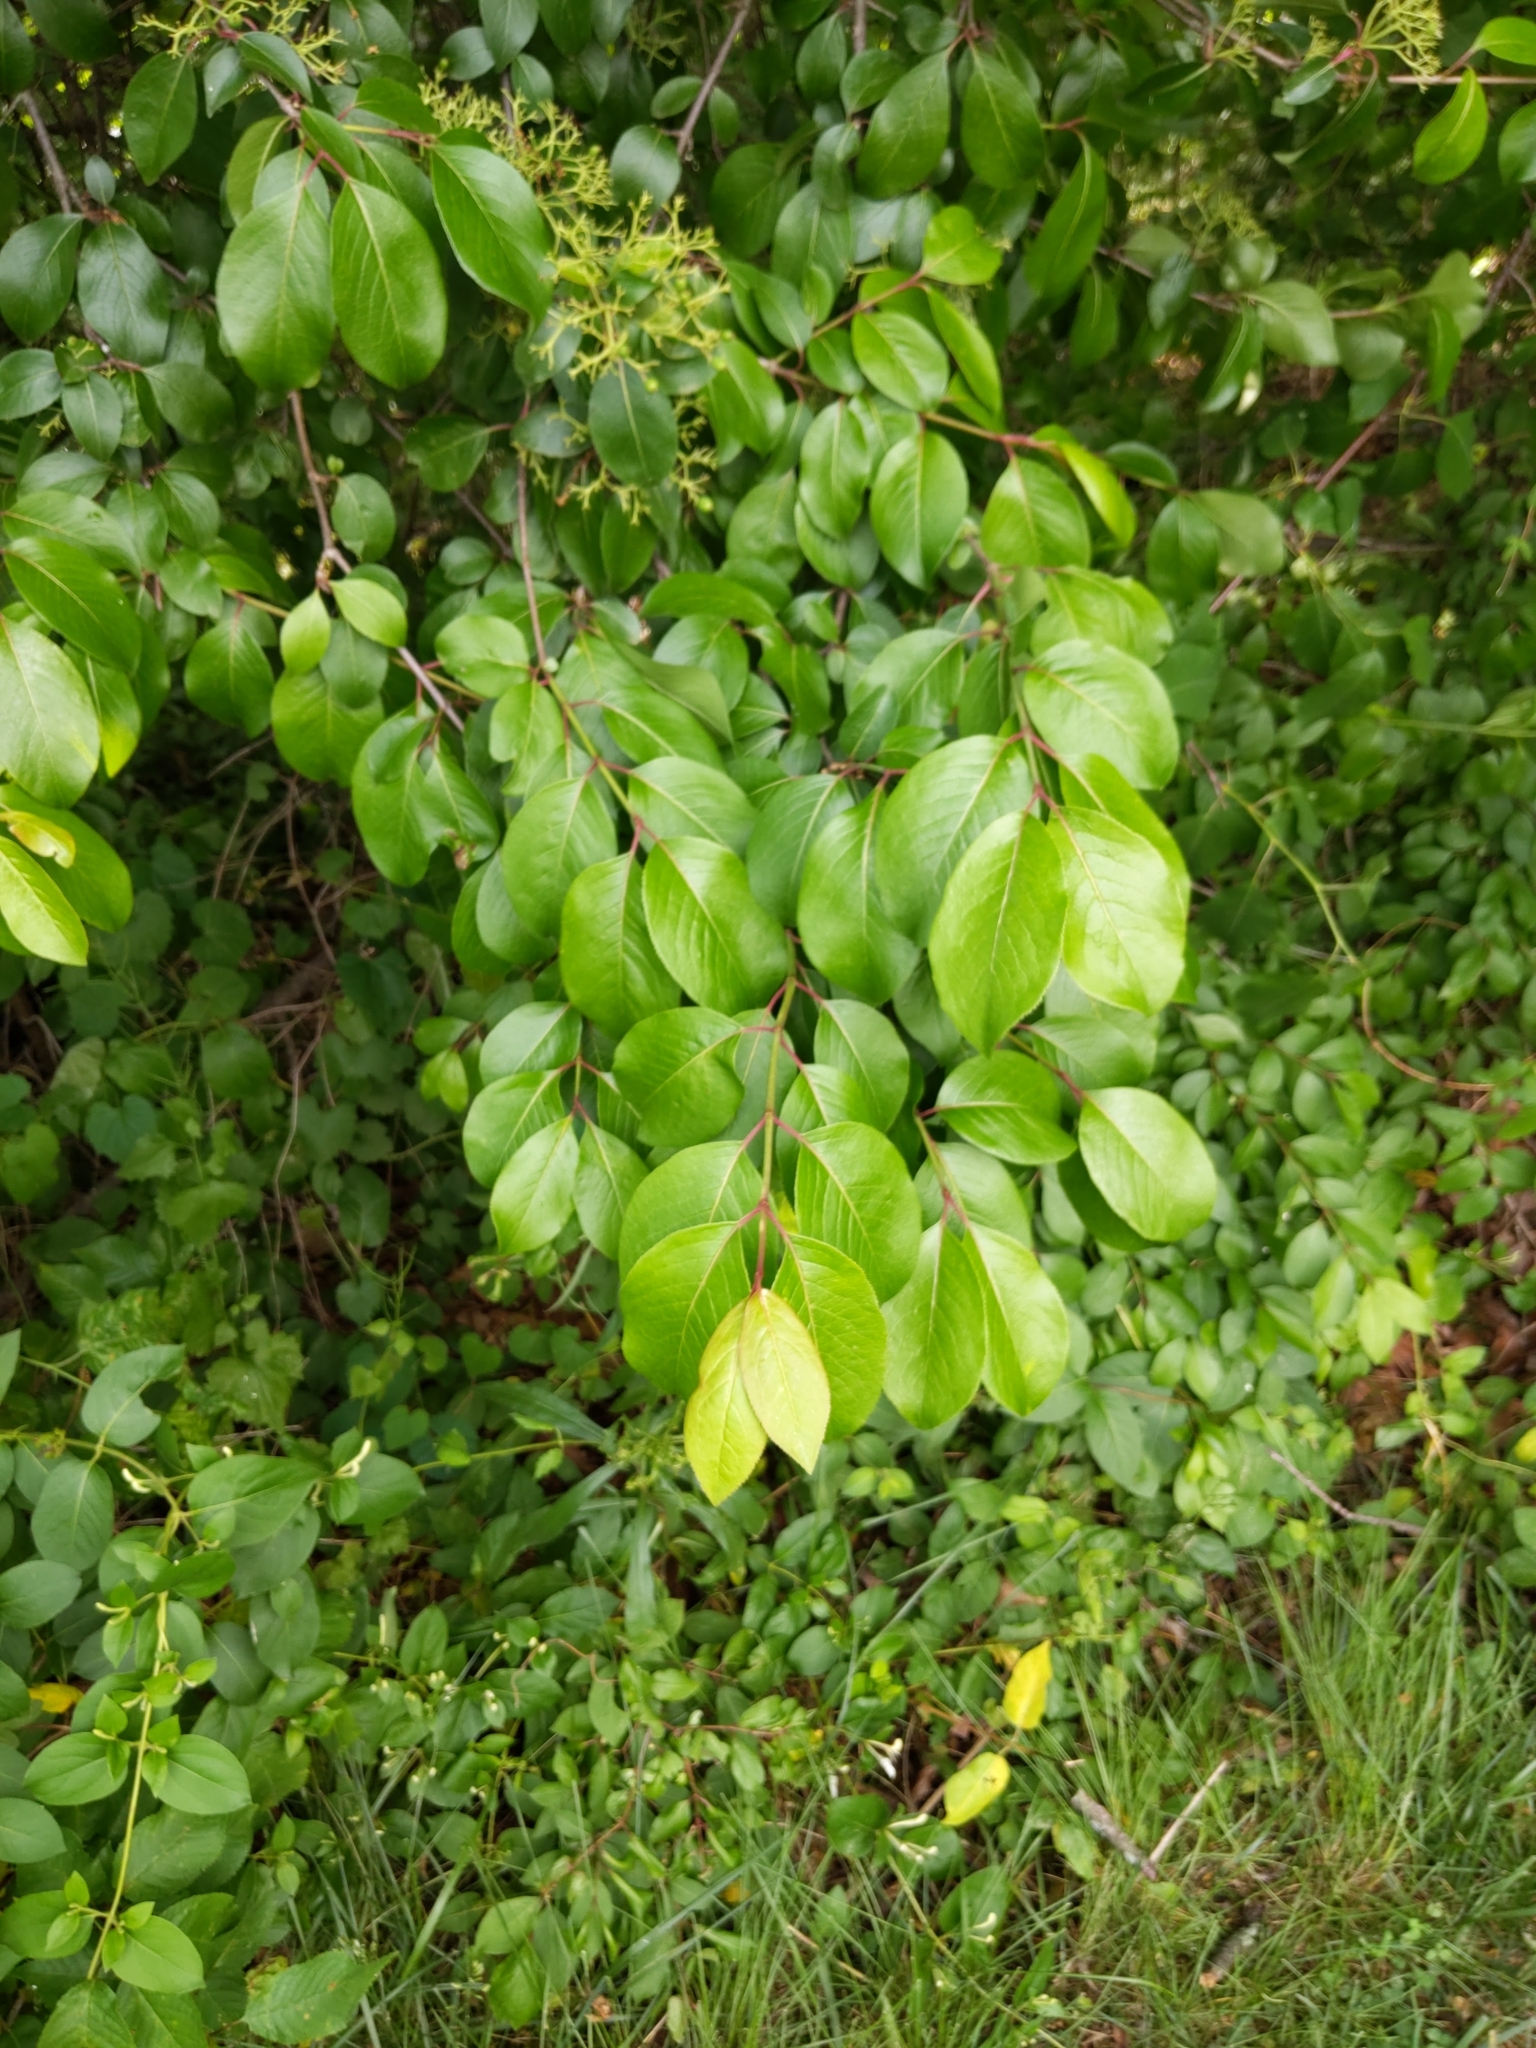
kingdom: Plantae
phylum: Tracheophyta
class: Magnoliopsida
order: Dipsacales
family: Viburnaceae
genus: Viburnum
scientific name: Viburnum prunifolium
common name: Black haw
